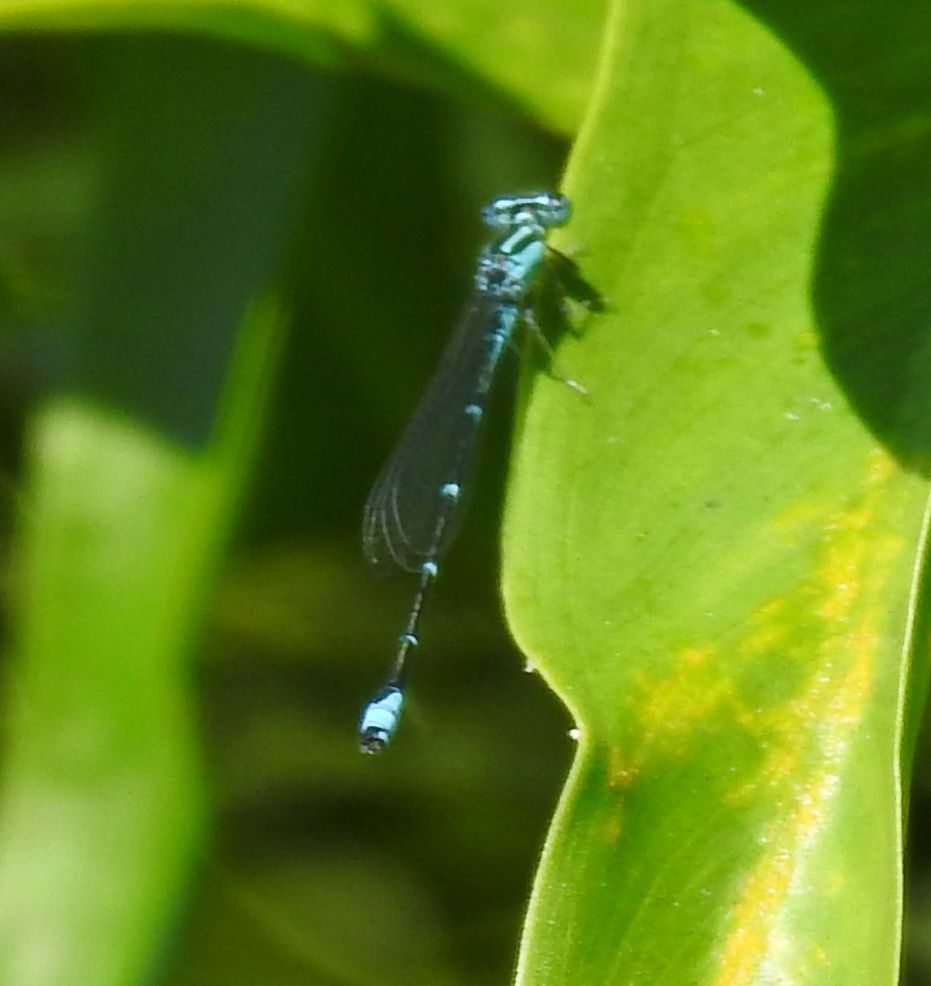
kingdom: Animalia
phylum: Arthropoda
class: Insecta
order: Odonata
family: Coenagrionidae
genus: Enallagma
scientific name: Enallagma exsulans
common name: Stream bluet
